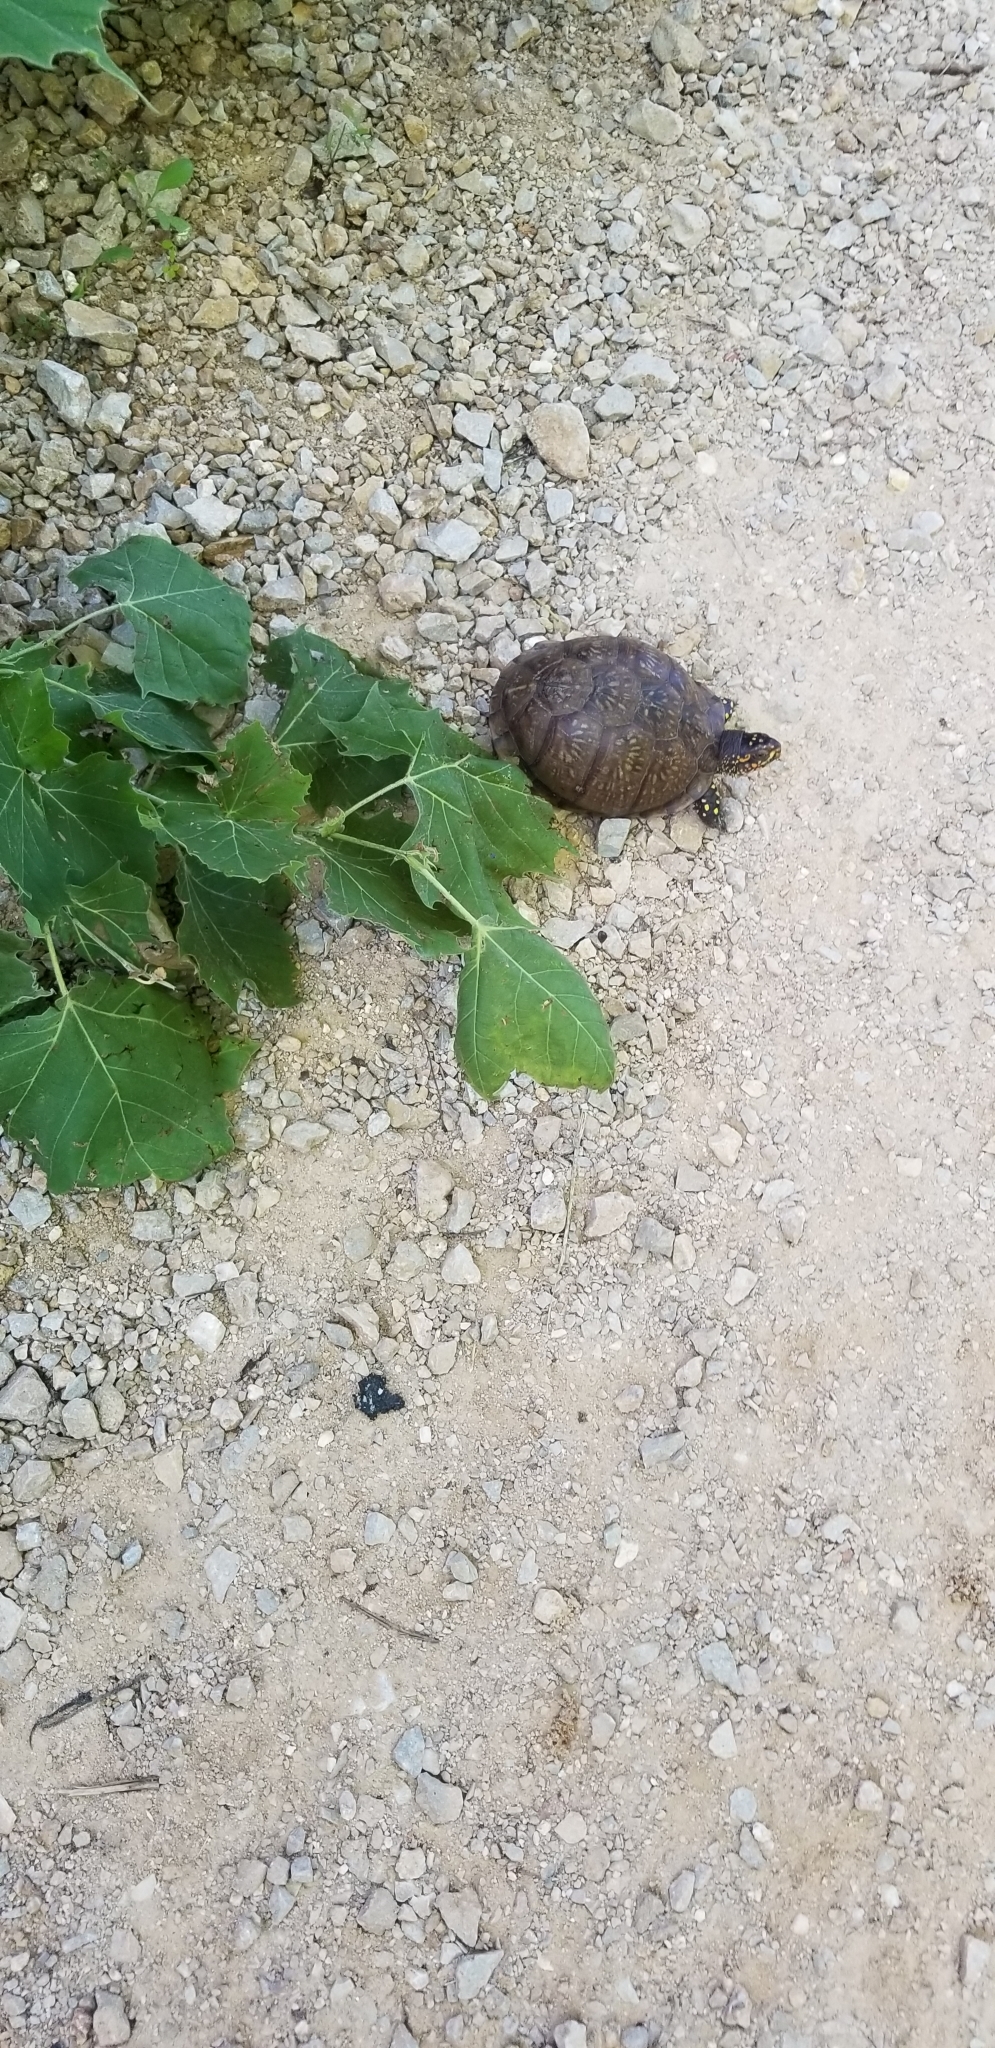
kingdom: Animalia
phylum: Chordata
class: Testudines
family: Emydidae
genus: Terrapene
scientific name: Terrapene carolina
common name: Common box turtle
